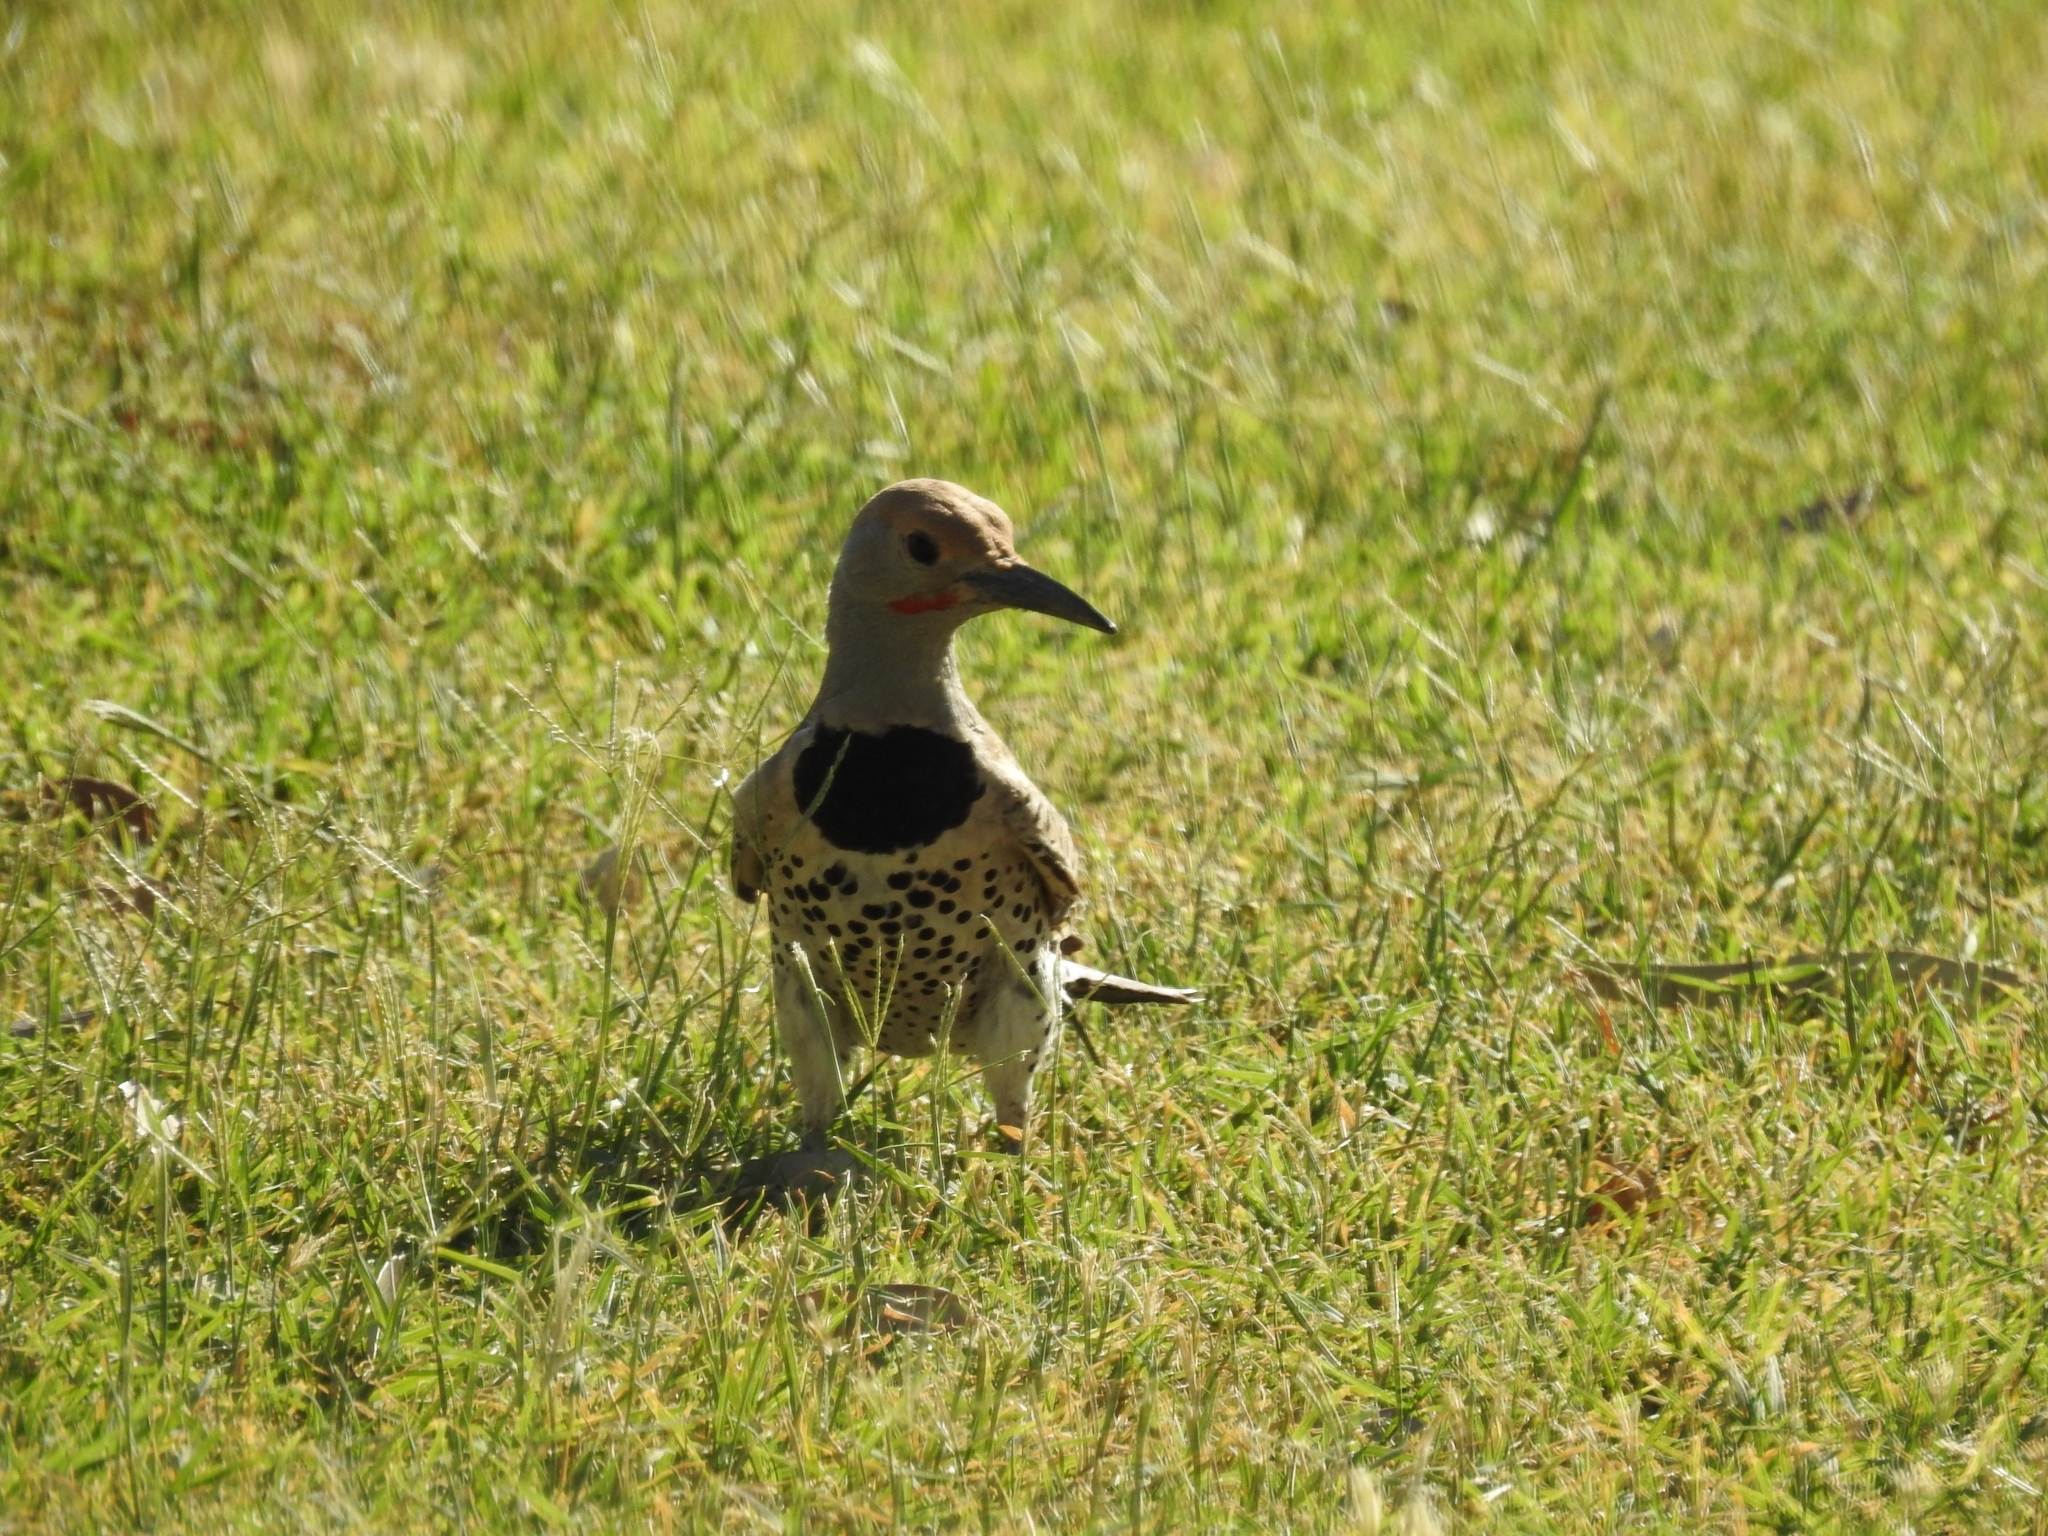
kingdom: Animalia
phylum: Chordata
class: Aves
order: Piciformes
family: Picidae
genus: Colaptes
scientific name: Colaptes chrysoides
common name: Gilded flicker
